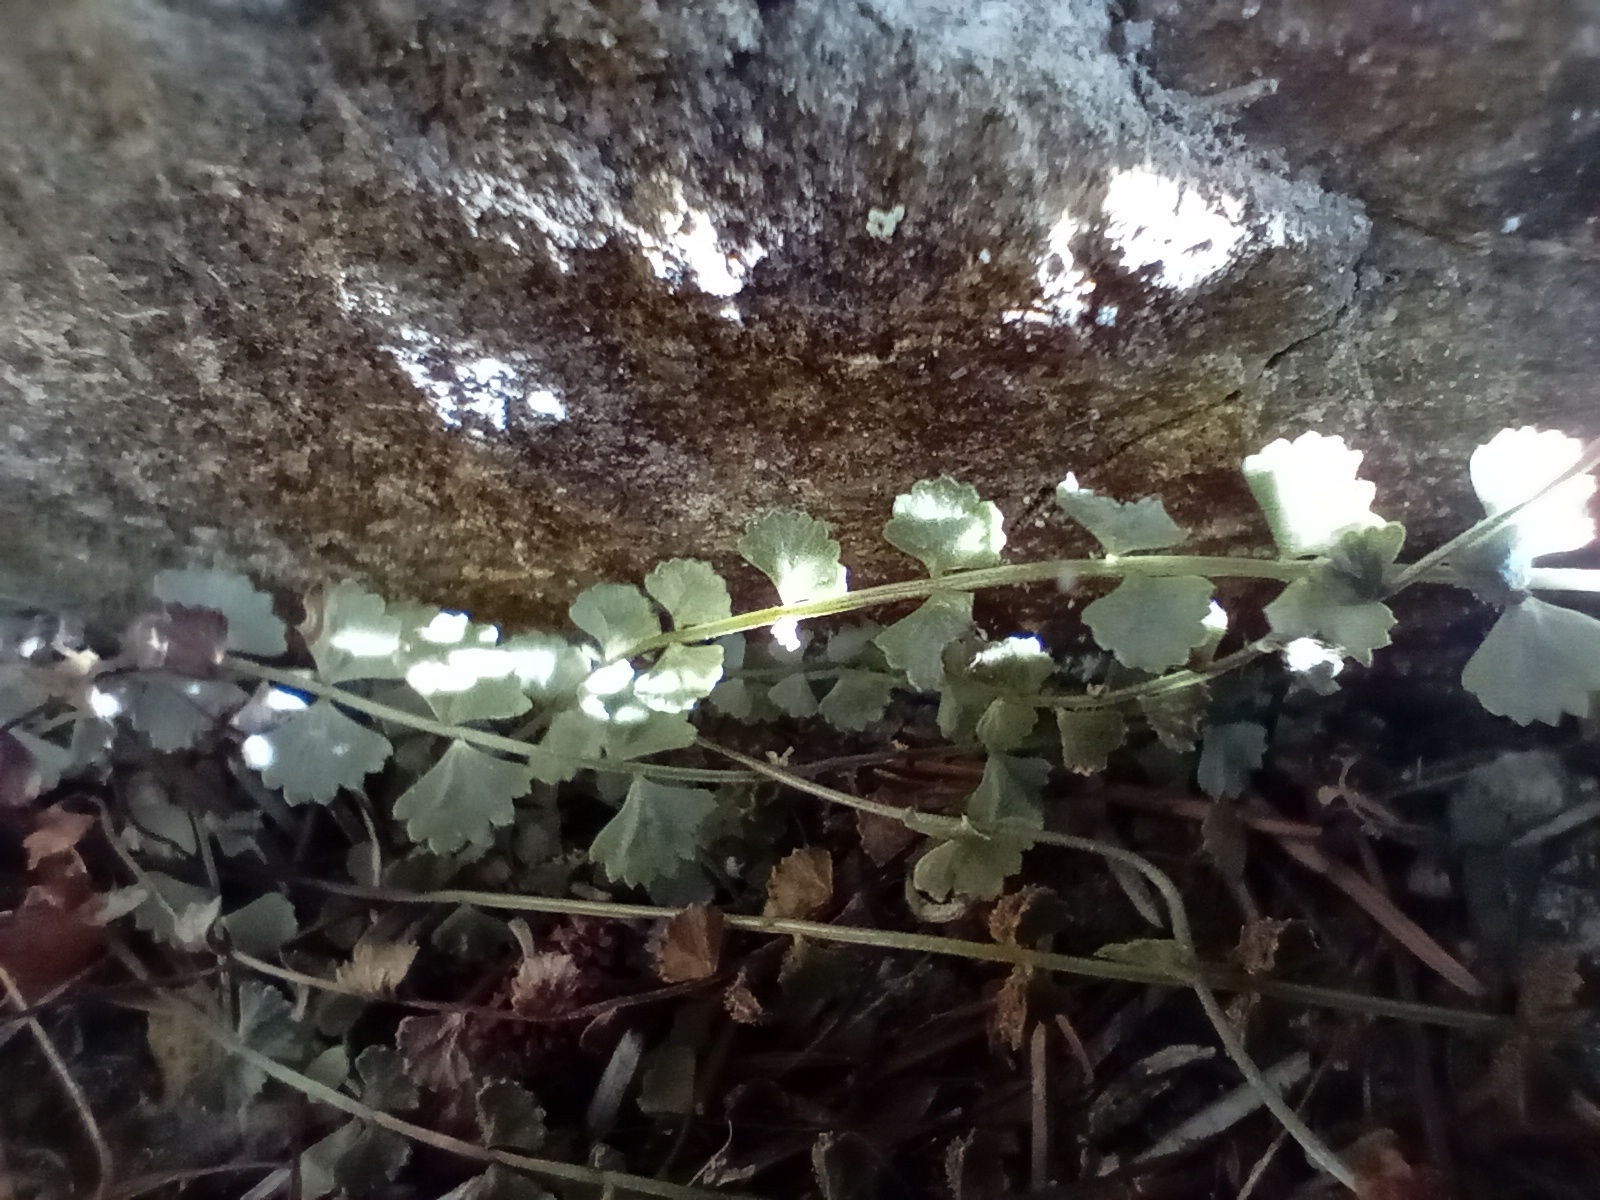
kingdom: Plantae
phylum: Tracheophyta
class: Polypodiopsida
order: Polypodiales
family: Aspleniaceae
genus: Asplenium
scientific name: Asplenium flabellifolium
